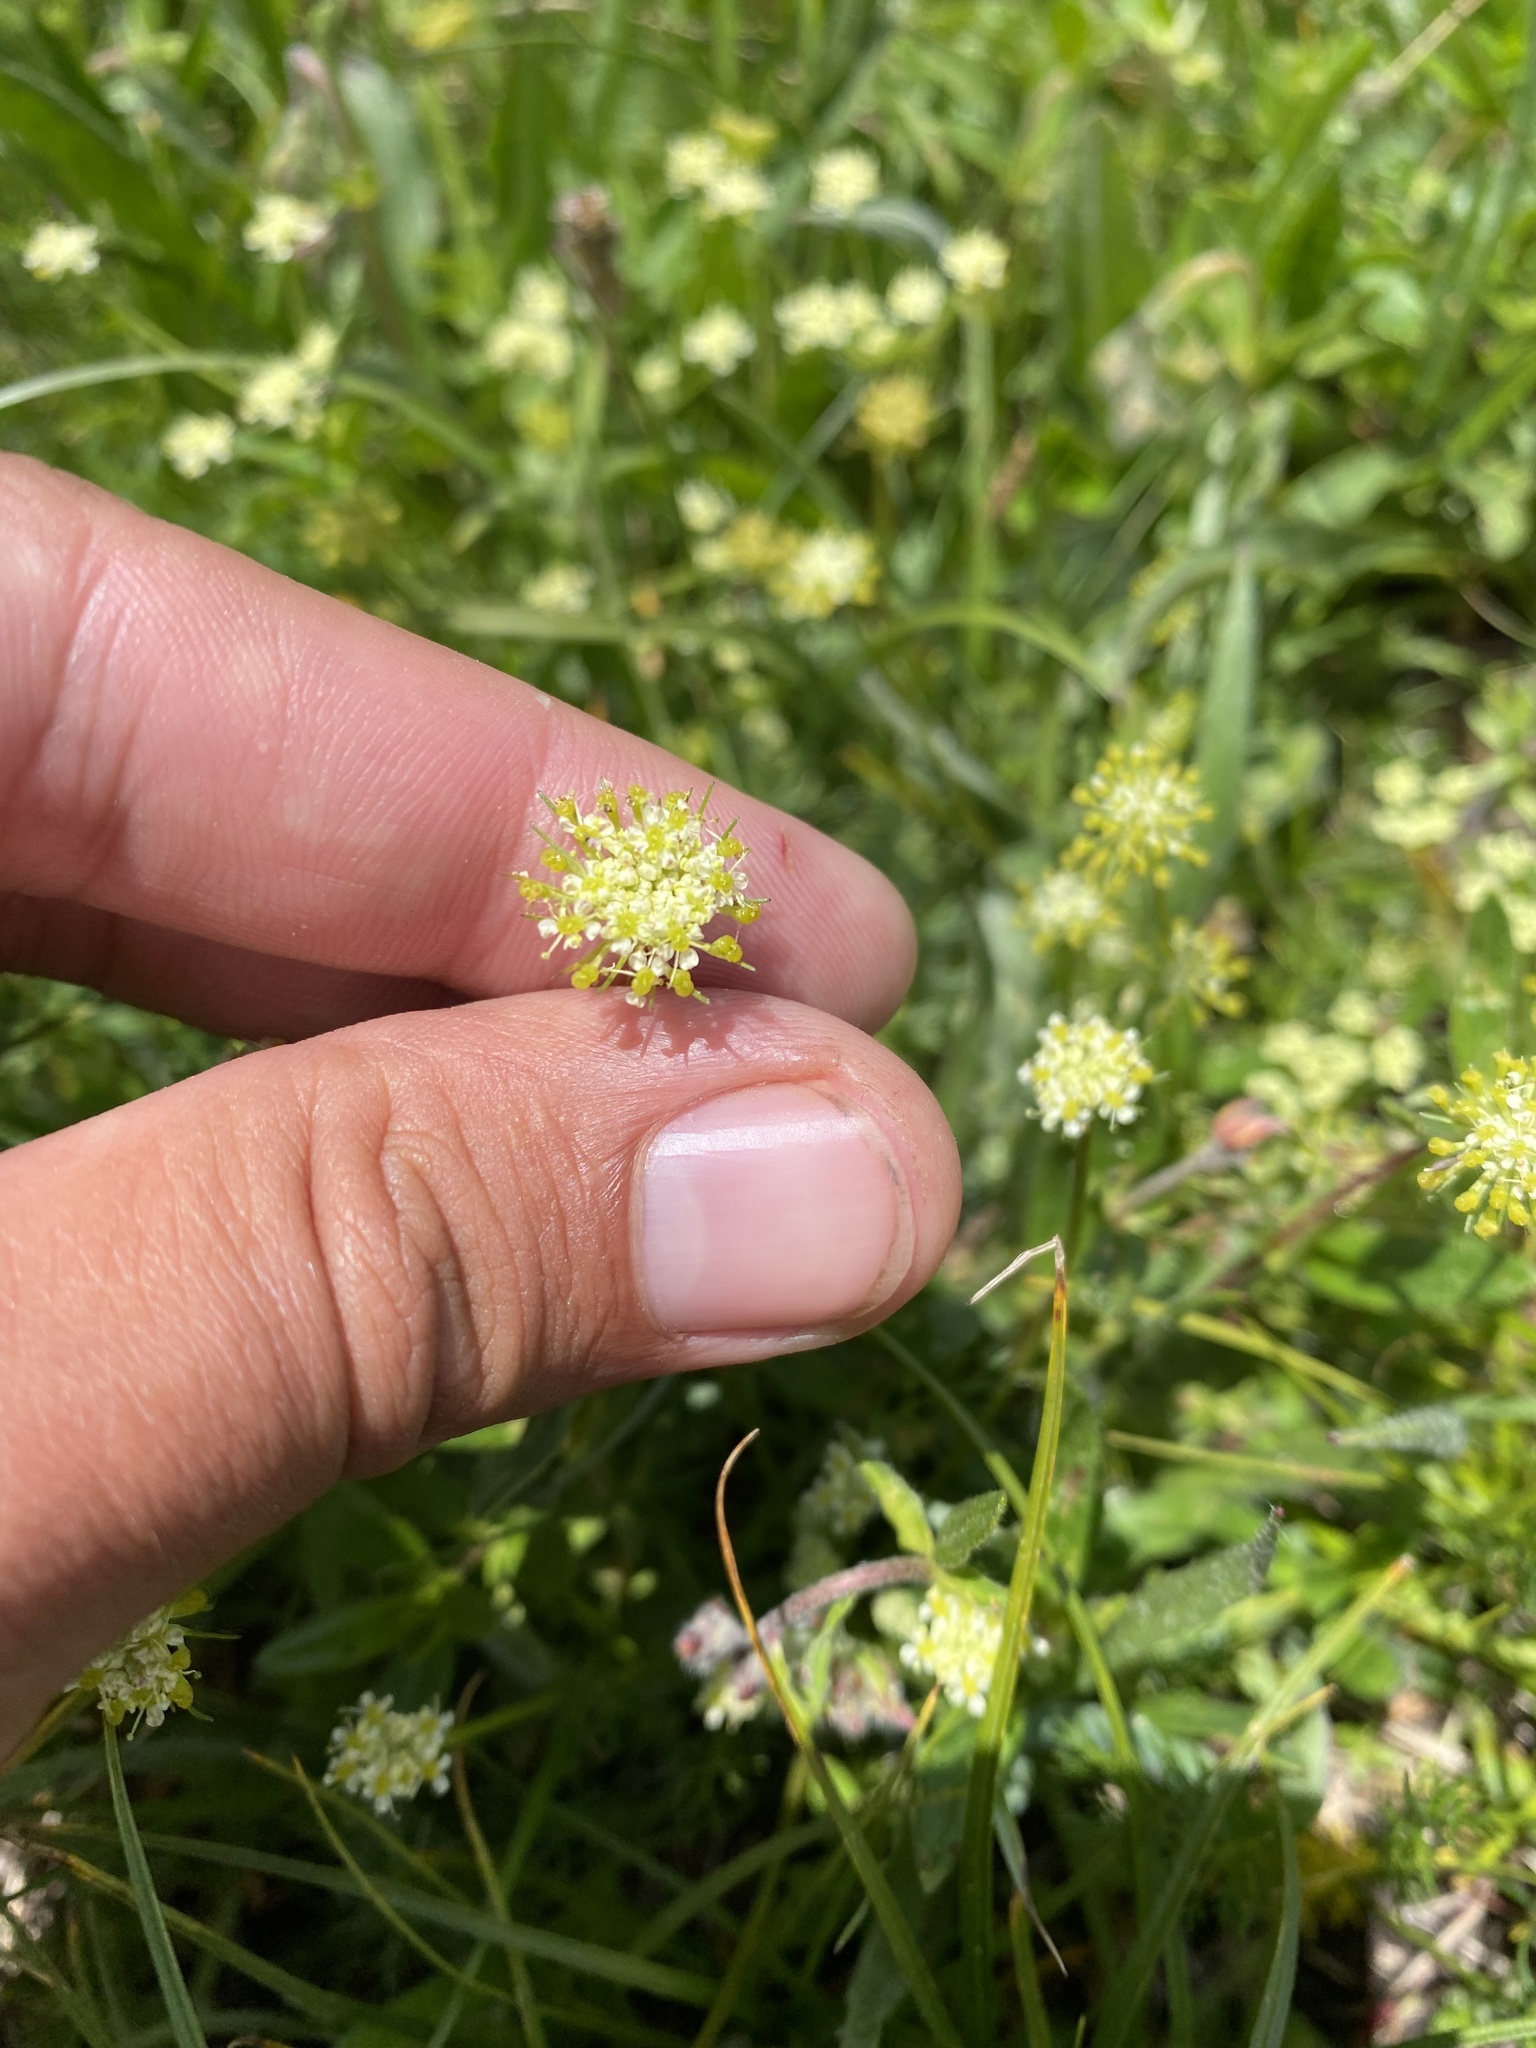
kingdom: Plantae
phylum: Tracheophyta
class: Magnoliopsida
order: Apiales
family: Apiaceae
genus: Chamaesciadium
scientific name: Chamaesciadium acaule
